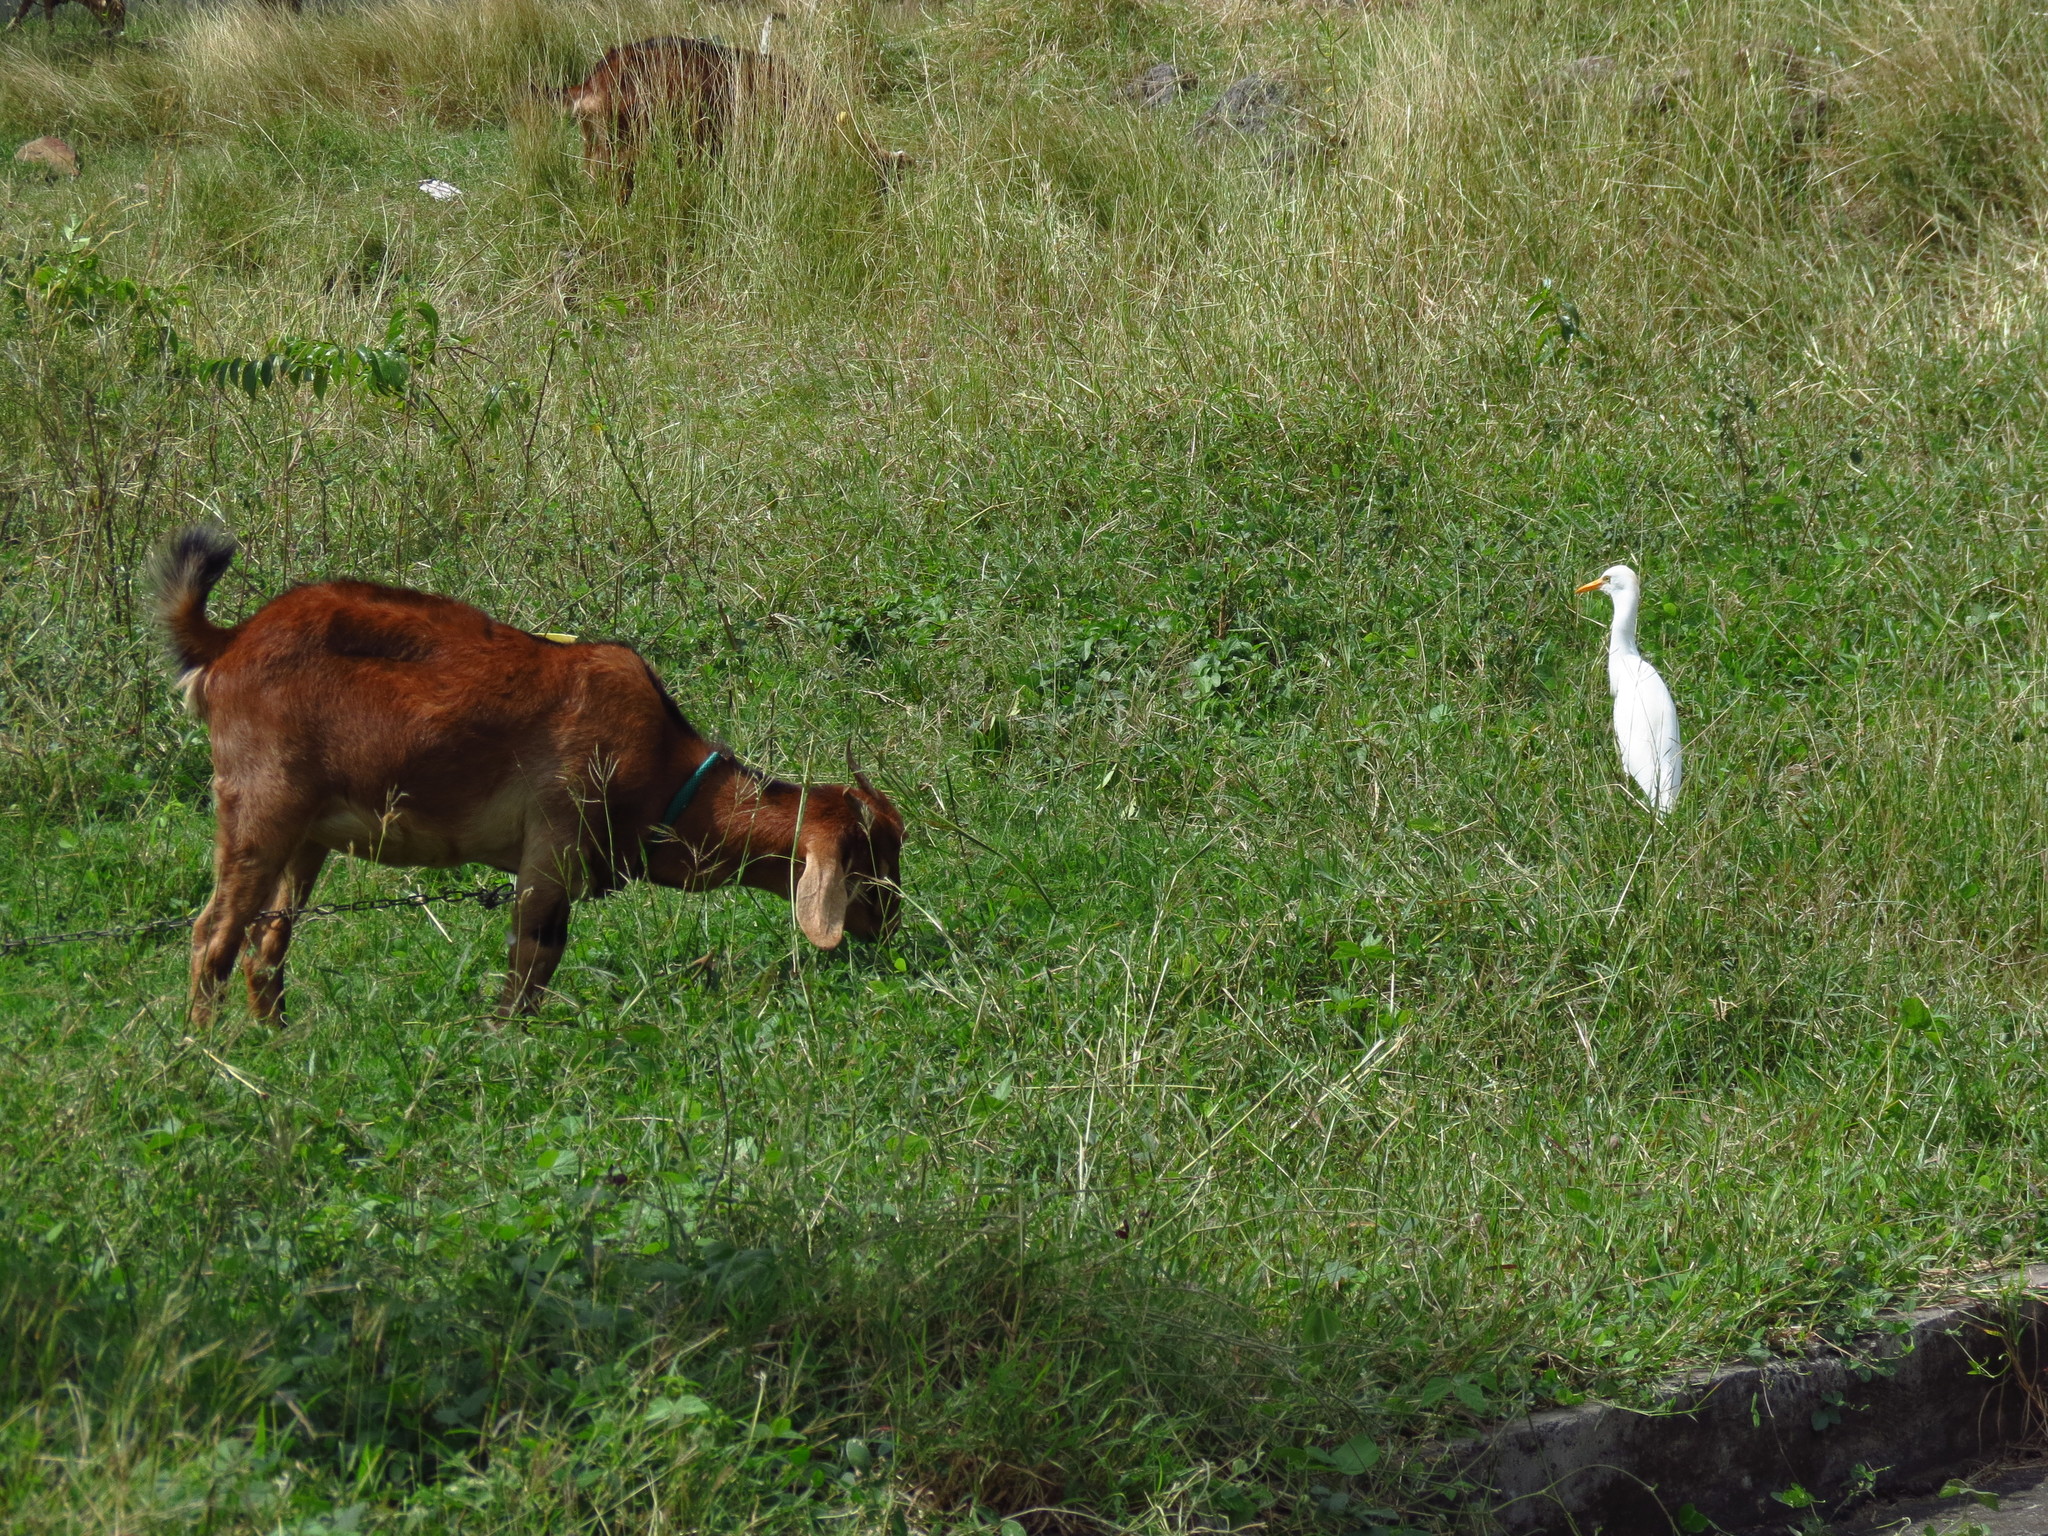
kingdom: Animalia
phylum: Chordata
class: Aves
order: Pelecaniformes
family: Ardeidae
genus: Bubulcus
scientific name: Bubulcus ibis
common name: Cattle egret
